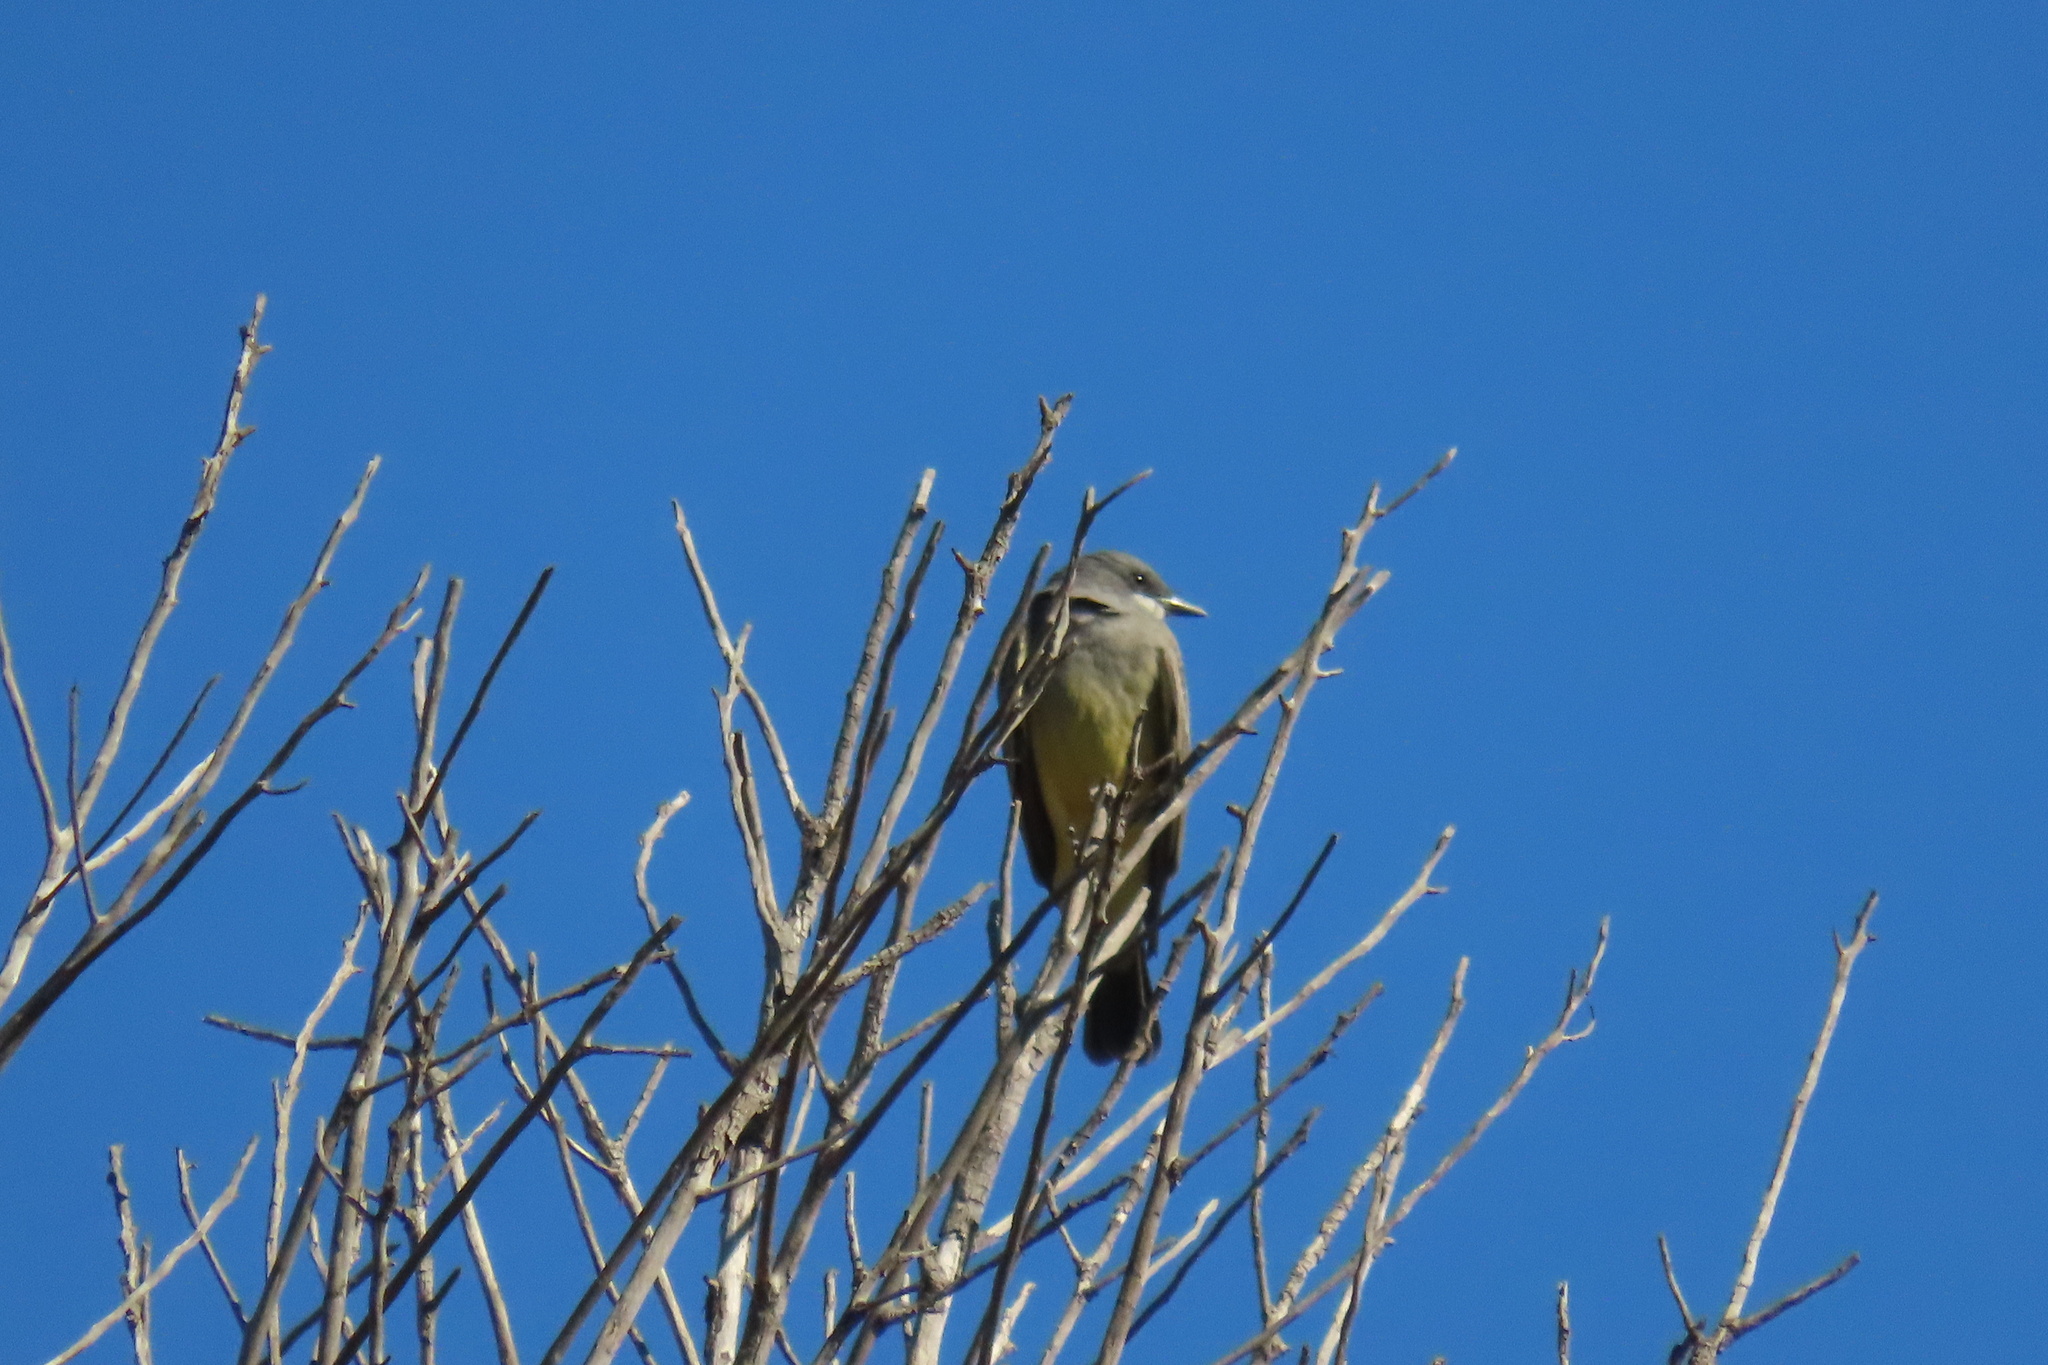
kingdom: Animalia
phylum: Chordata
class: Aves
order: Passeriformes
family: Tyrannidae
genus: Tyrannus
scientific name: Tyrannus vociferans
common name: Cassin's kingbird
